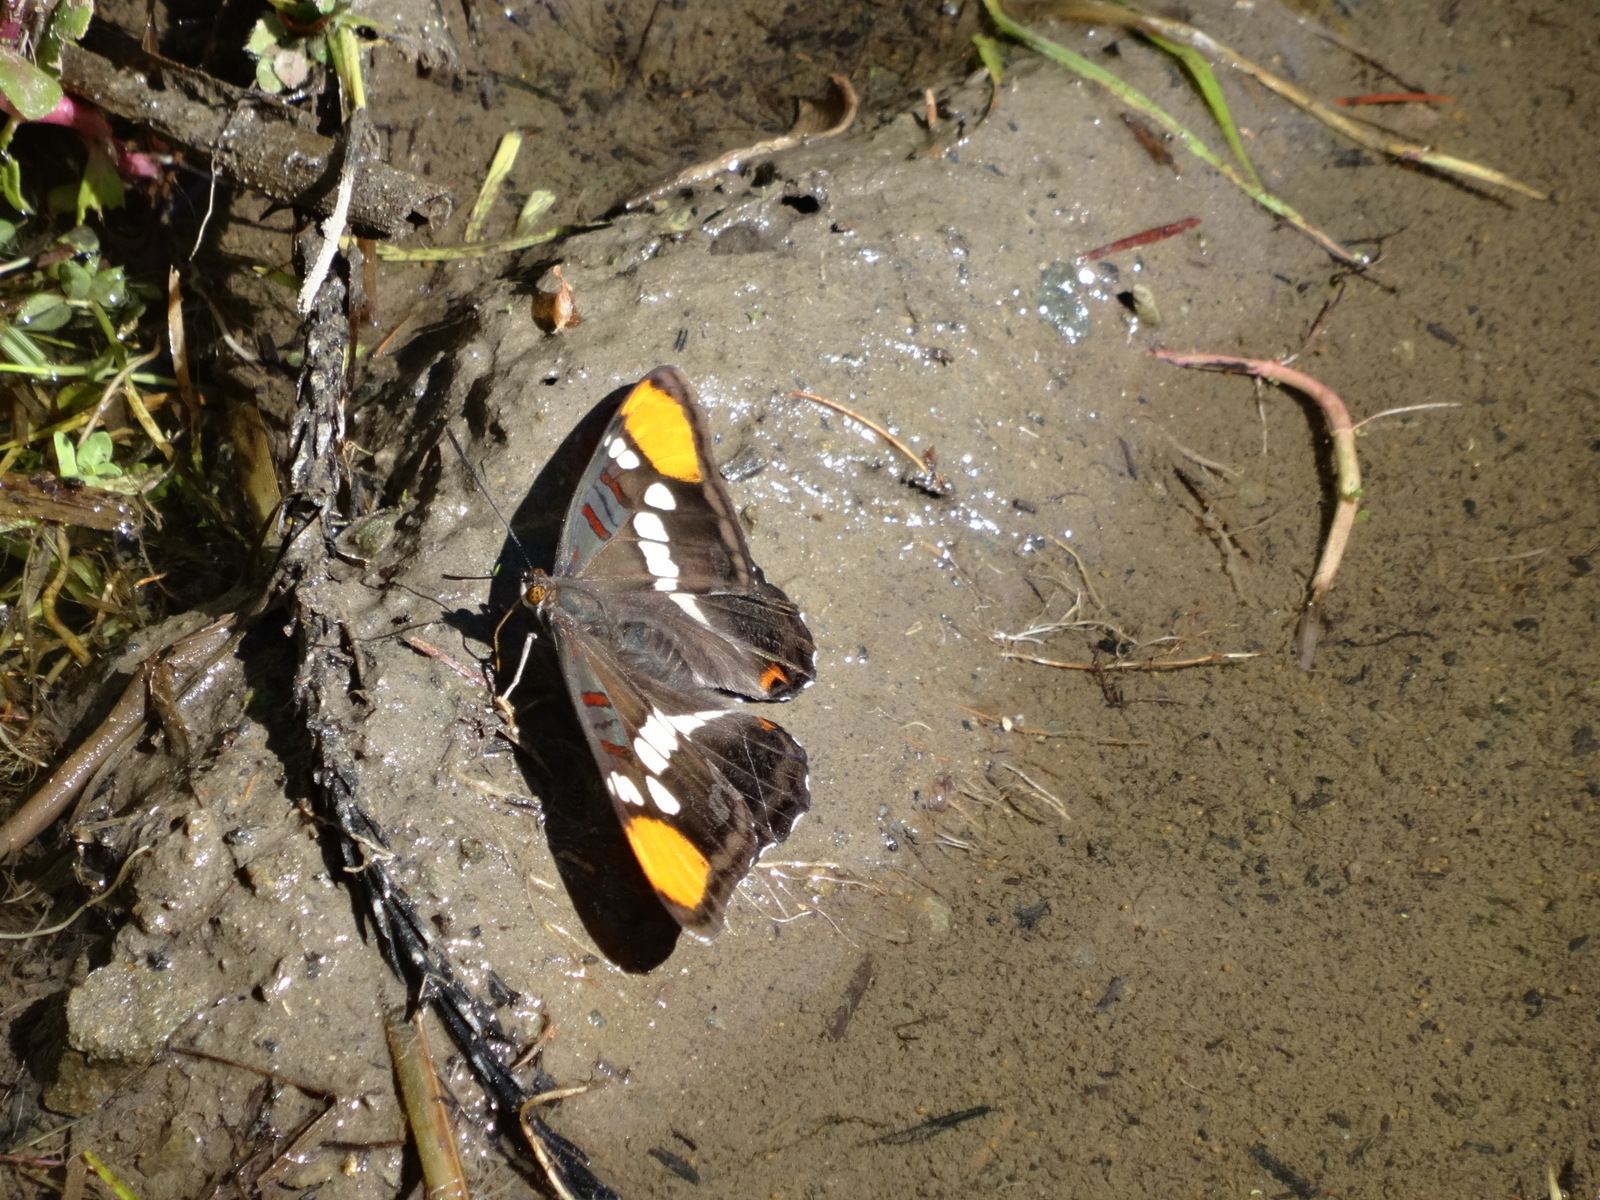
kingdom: Animalia
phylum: Arthropoda
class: Insecta
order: Lepidoptera
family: Nymphalidae
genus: Limenitis
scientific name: Limenitis bredowii
